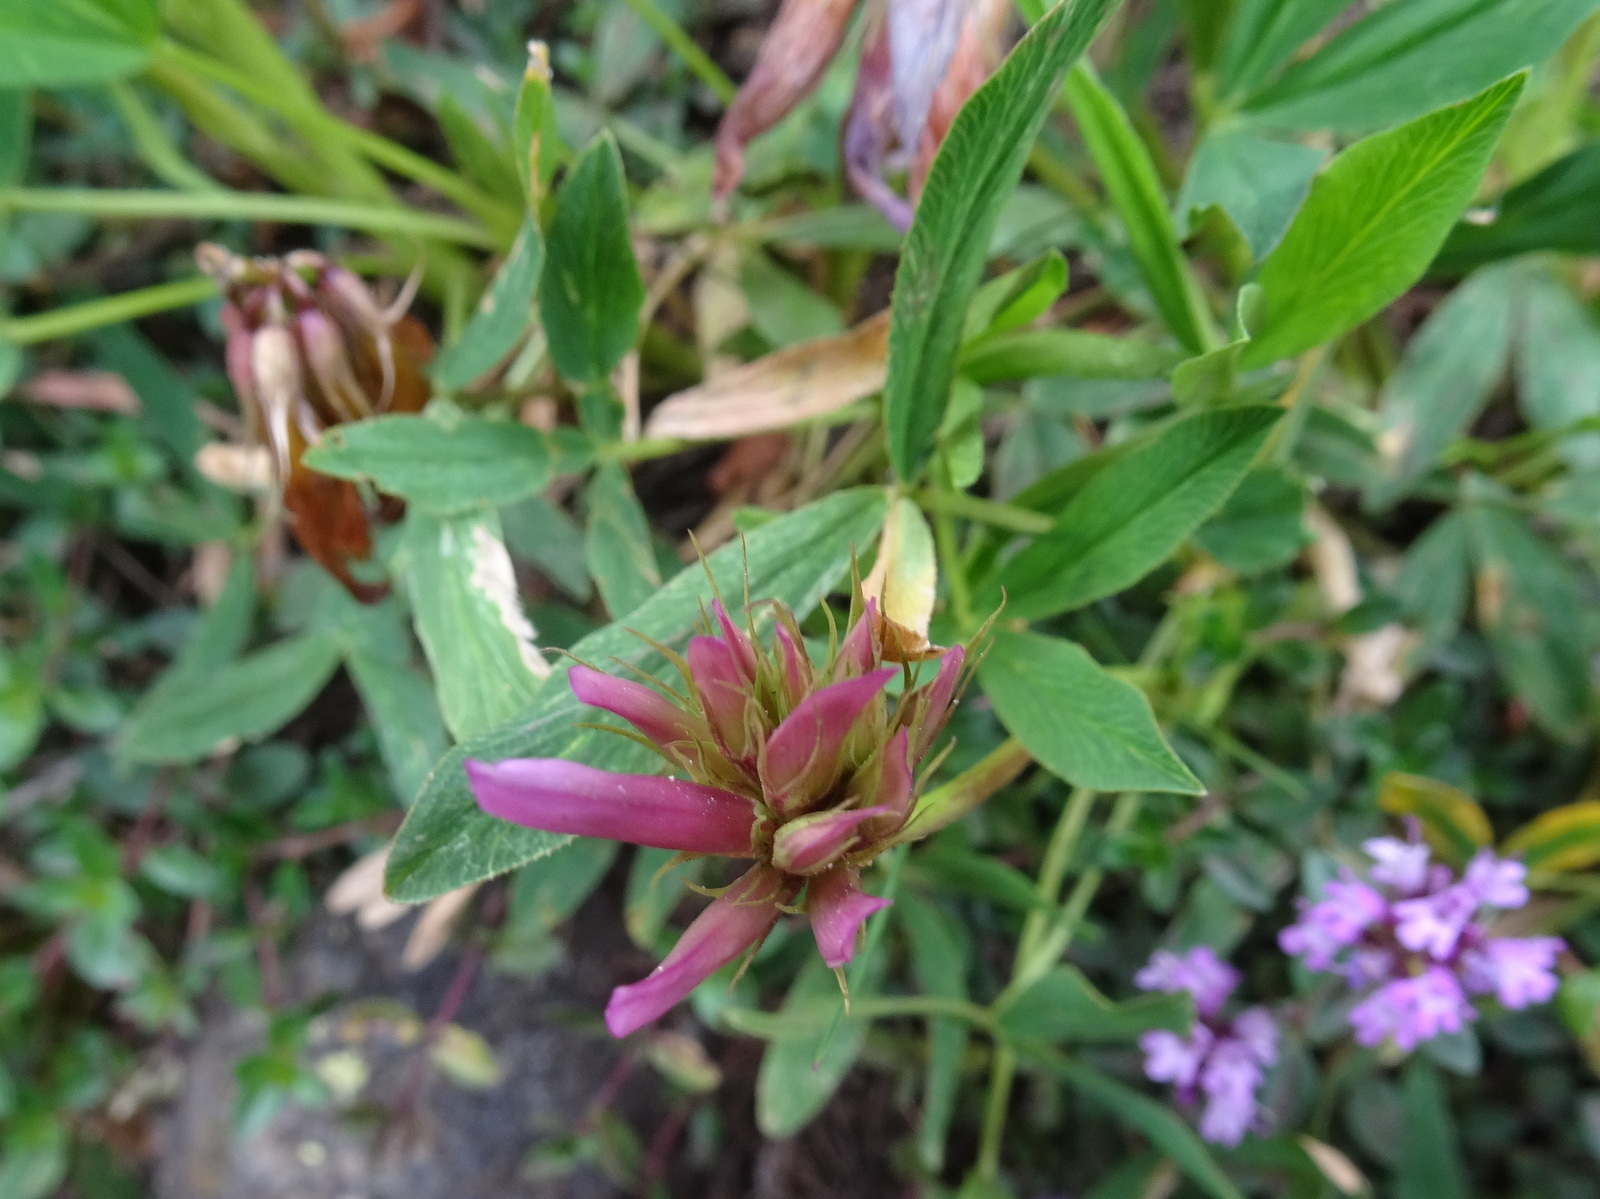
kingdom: Plantae
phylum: Tracheophyta
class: Magnoliopsida
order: Fabales
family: Fabaceae
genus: Trifolium
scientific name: Trifolium alpinum
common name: Alpine clover
